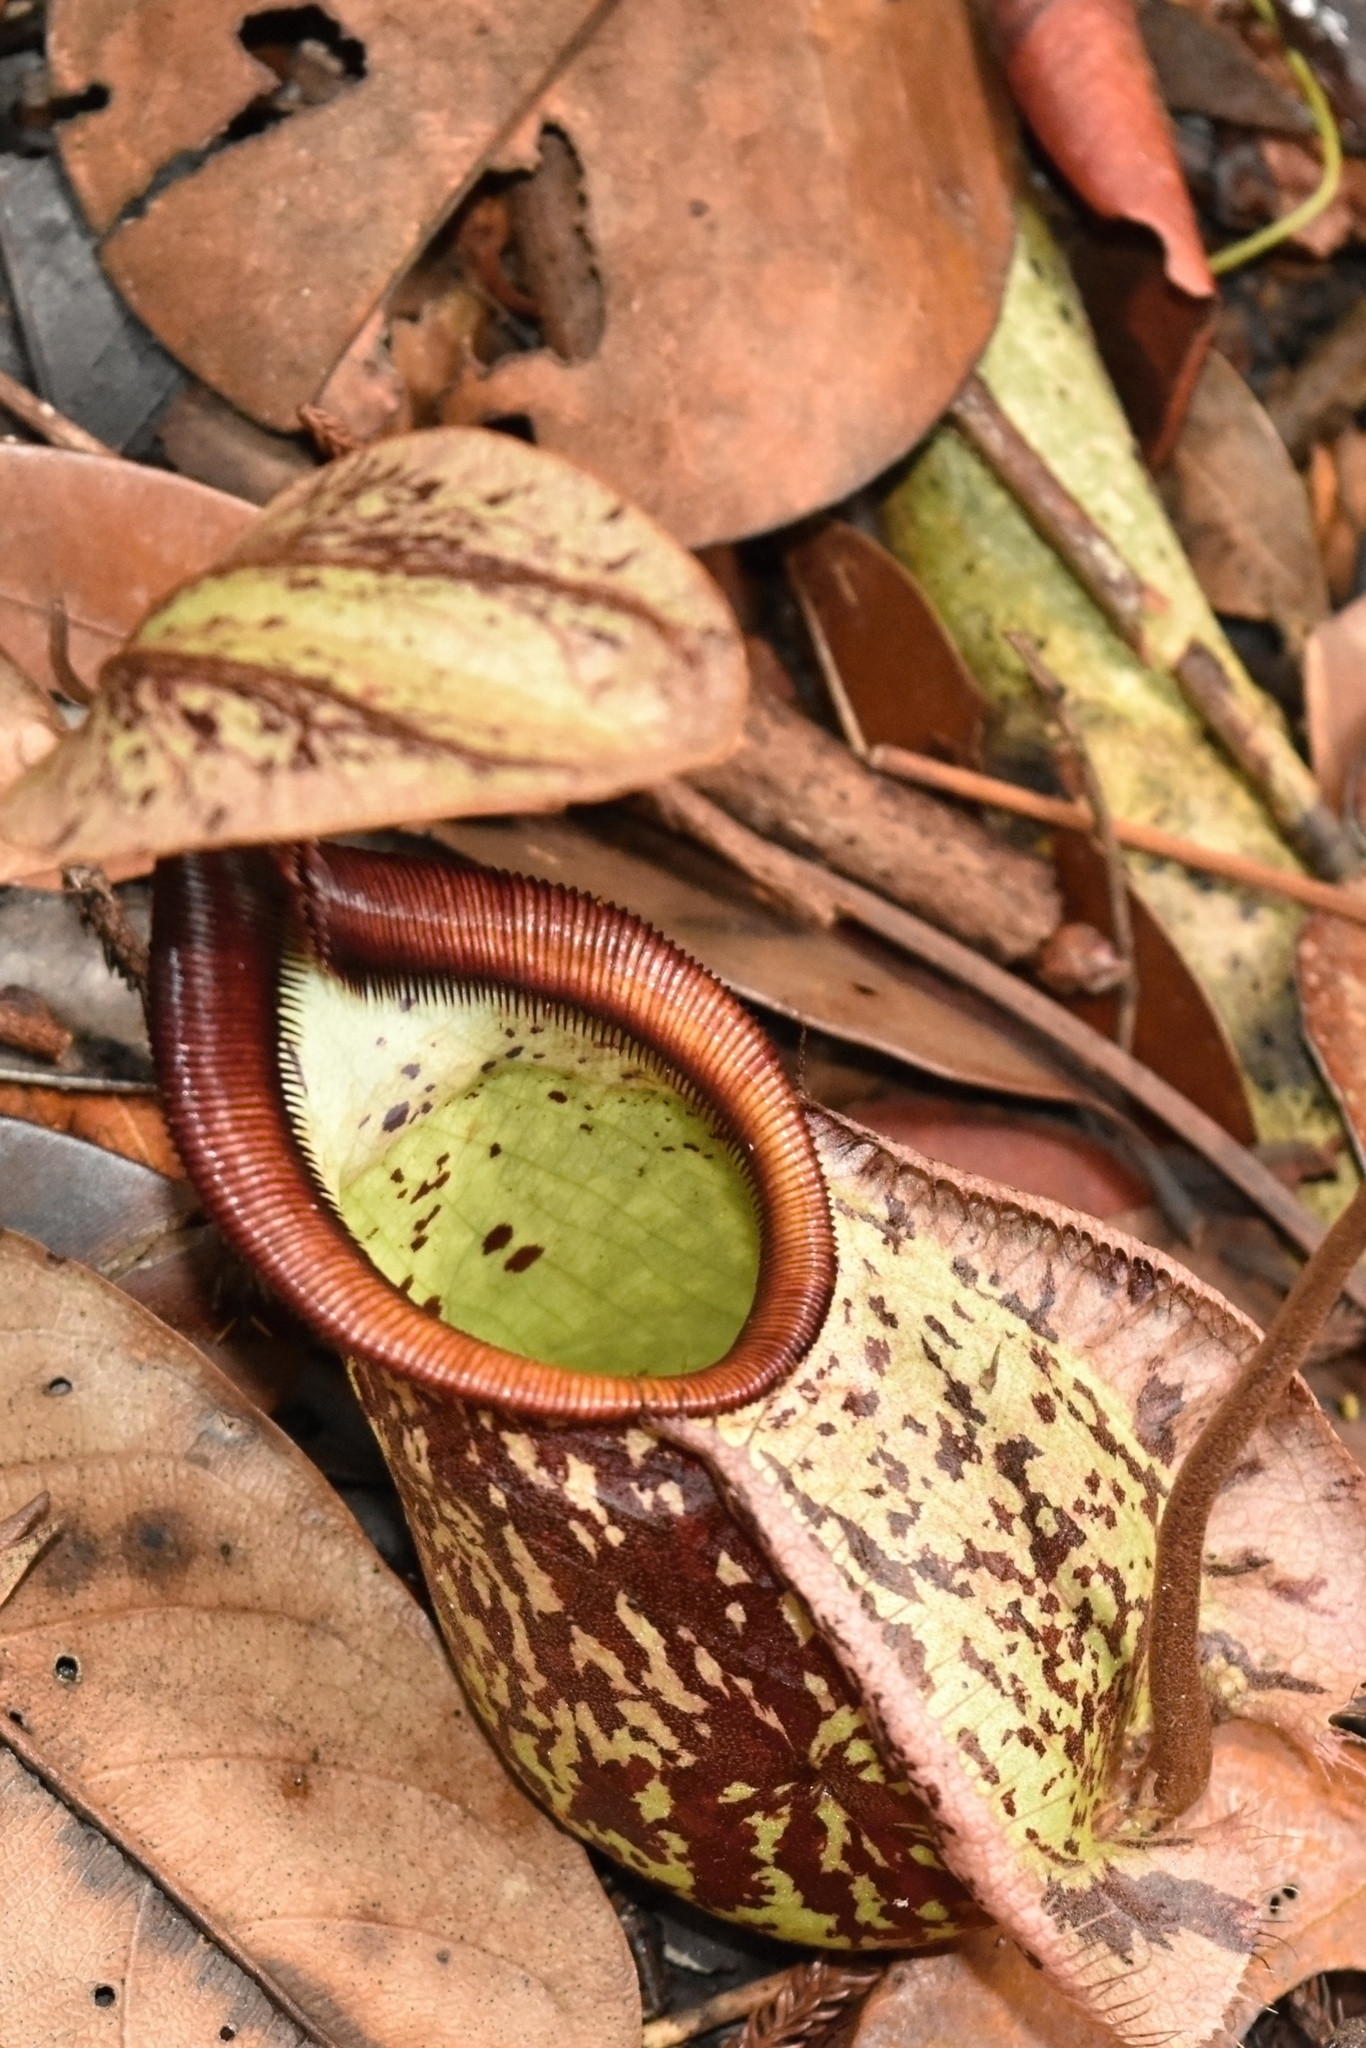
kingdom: Plantae
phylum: Tracheophyta
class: Magnoliopsida
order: Caryophyllales
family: Nepenthaceae
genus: Nepenthes
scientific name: Nepenthes rafflesiana
